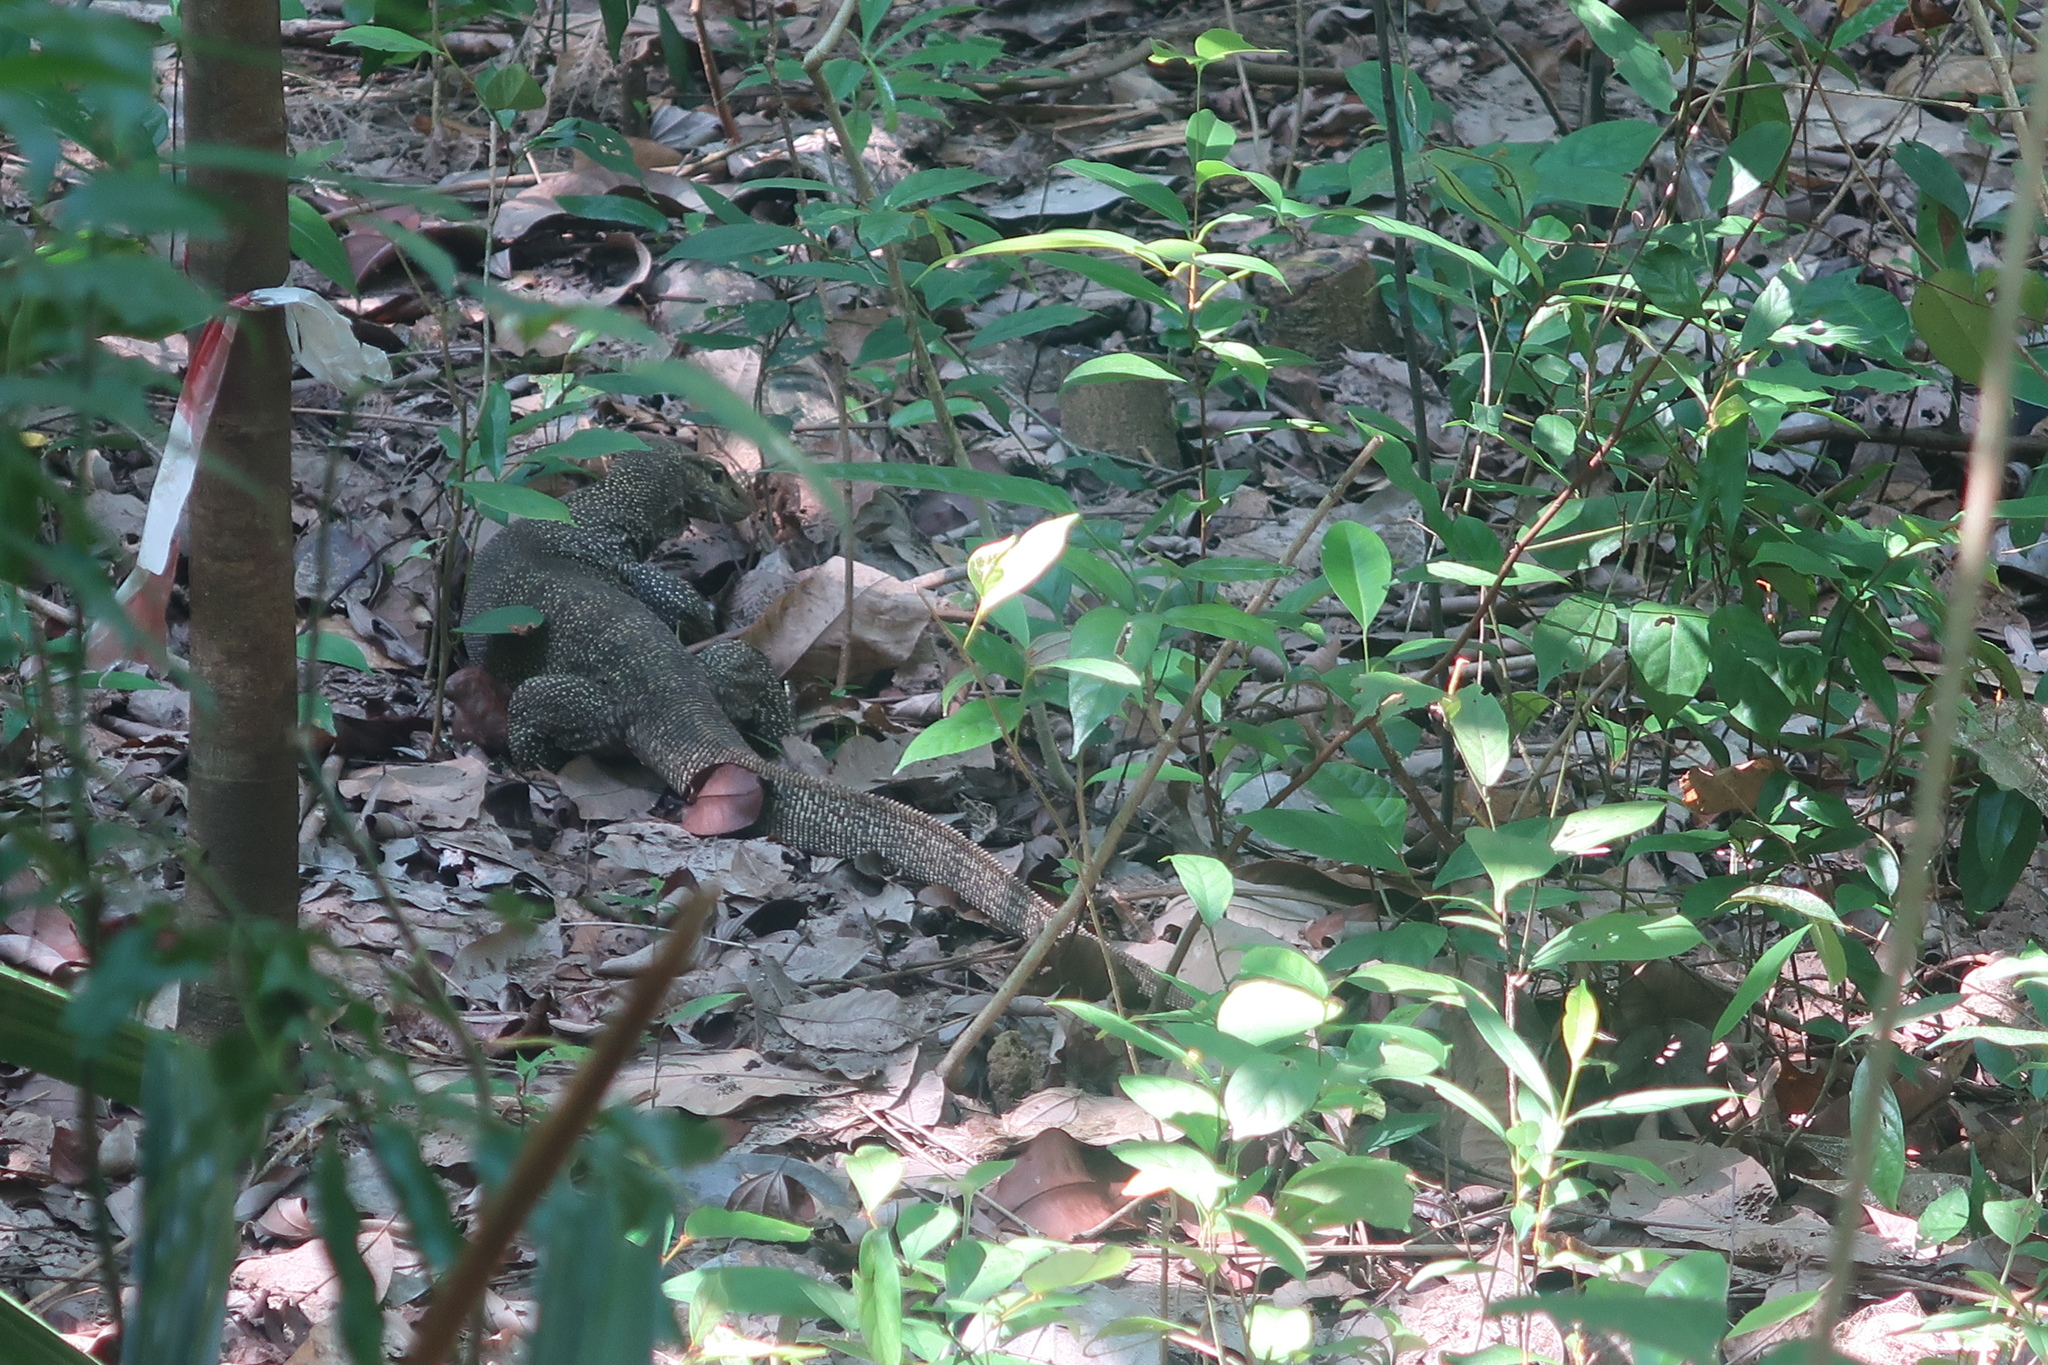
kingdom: Animalia
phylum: Chordata
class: Squamata
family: Varanidae
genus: Varanus
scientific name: Varanus nebulosus
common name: Clouded monitor
